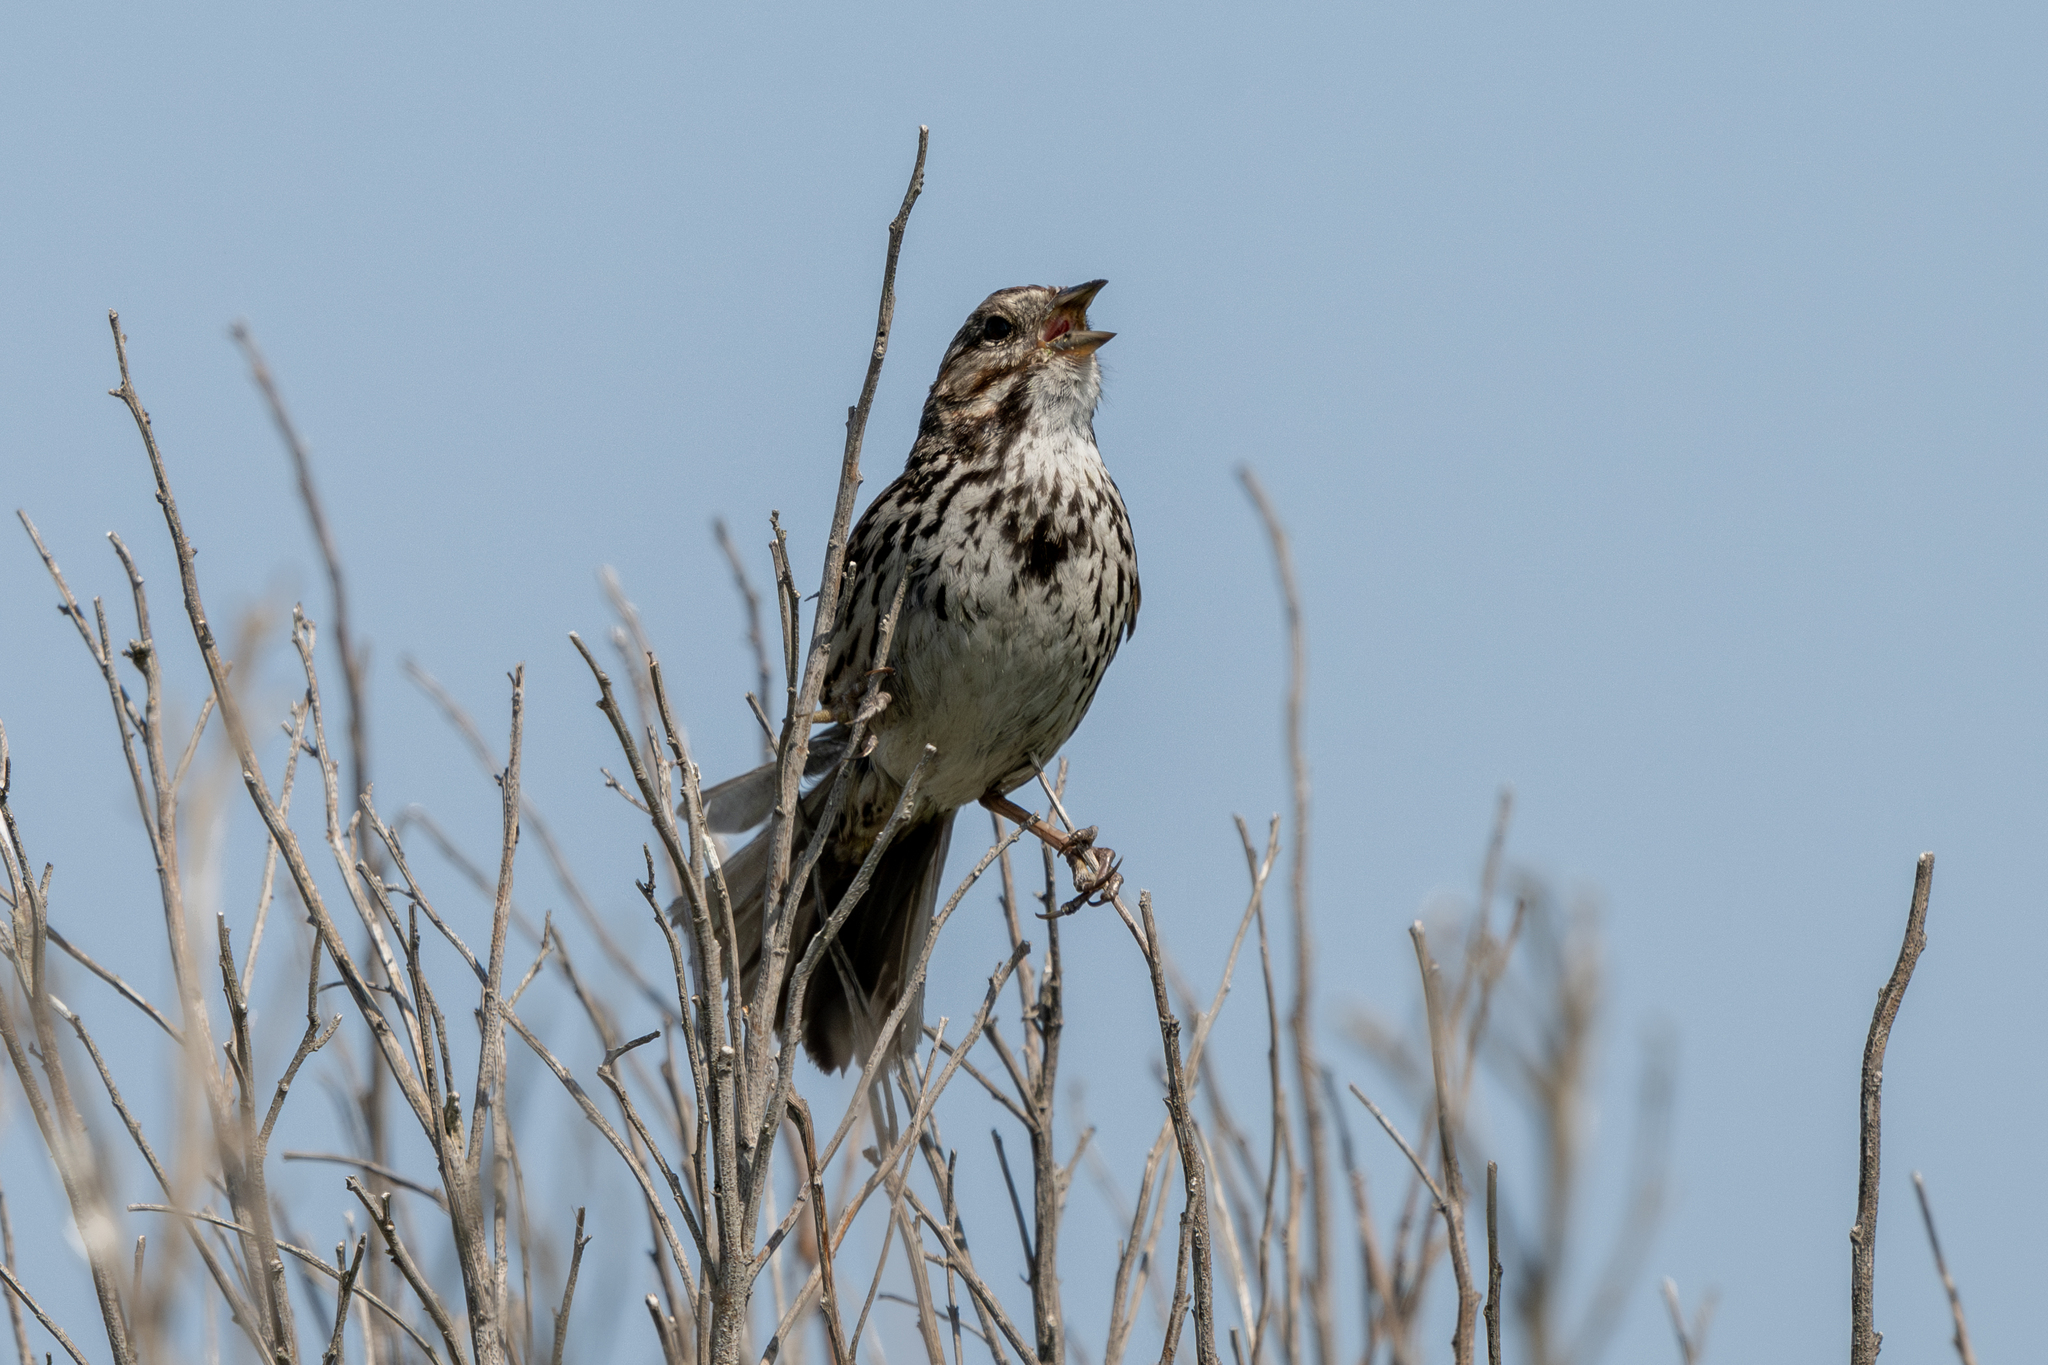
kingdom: Animalia
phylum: Chordata
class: Aves
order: Passeriformes
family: Passerellidae
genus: Melospiza
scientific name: Melospiza melodia
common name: Song sparrow
